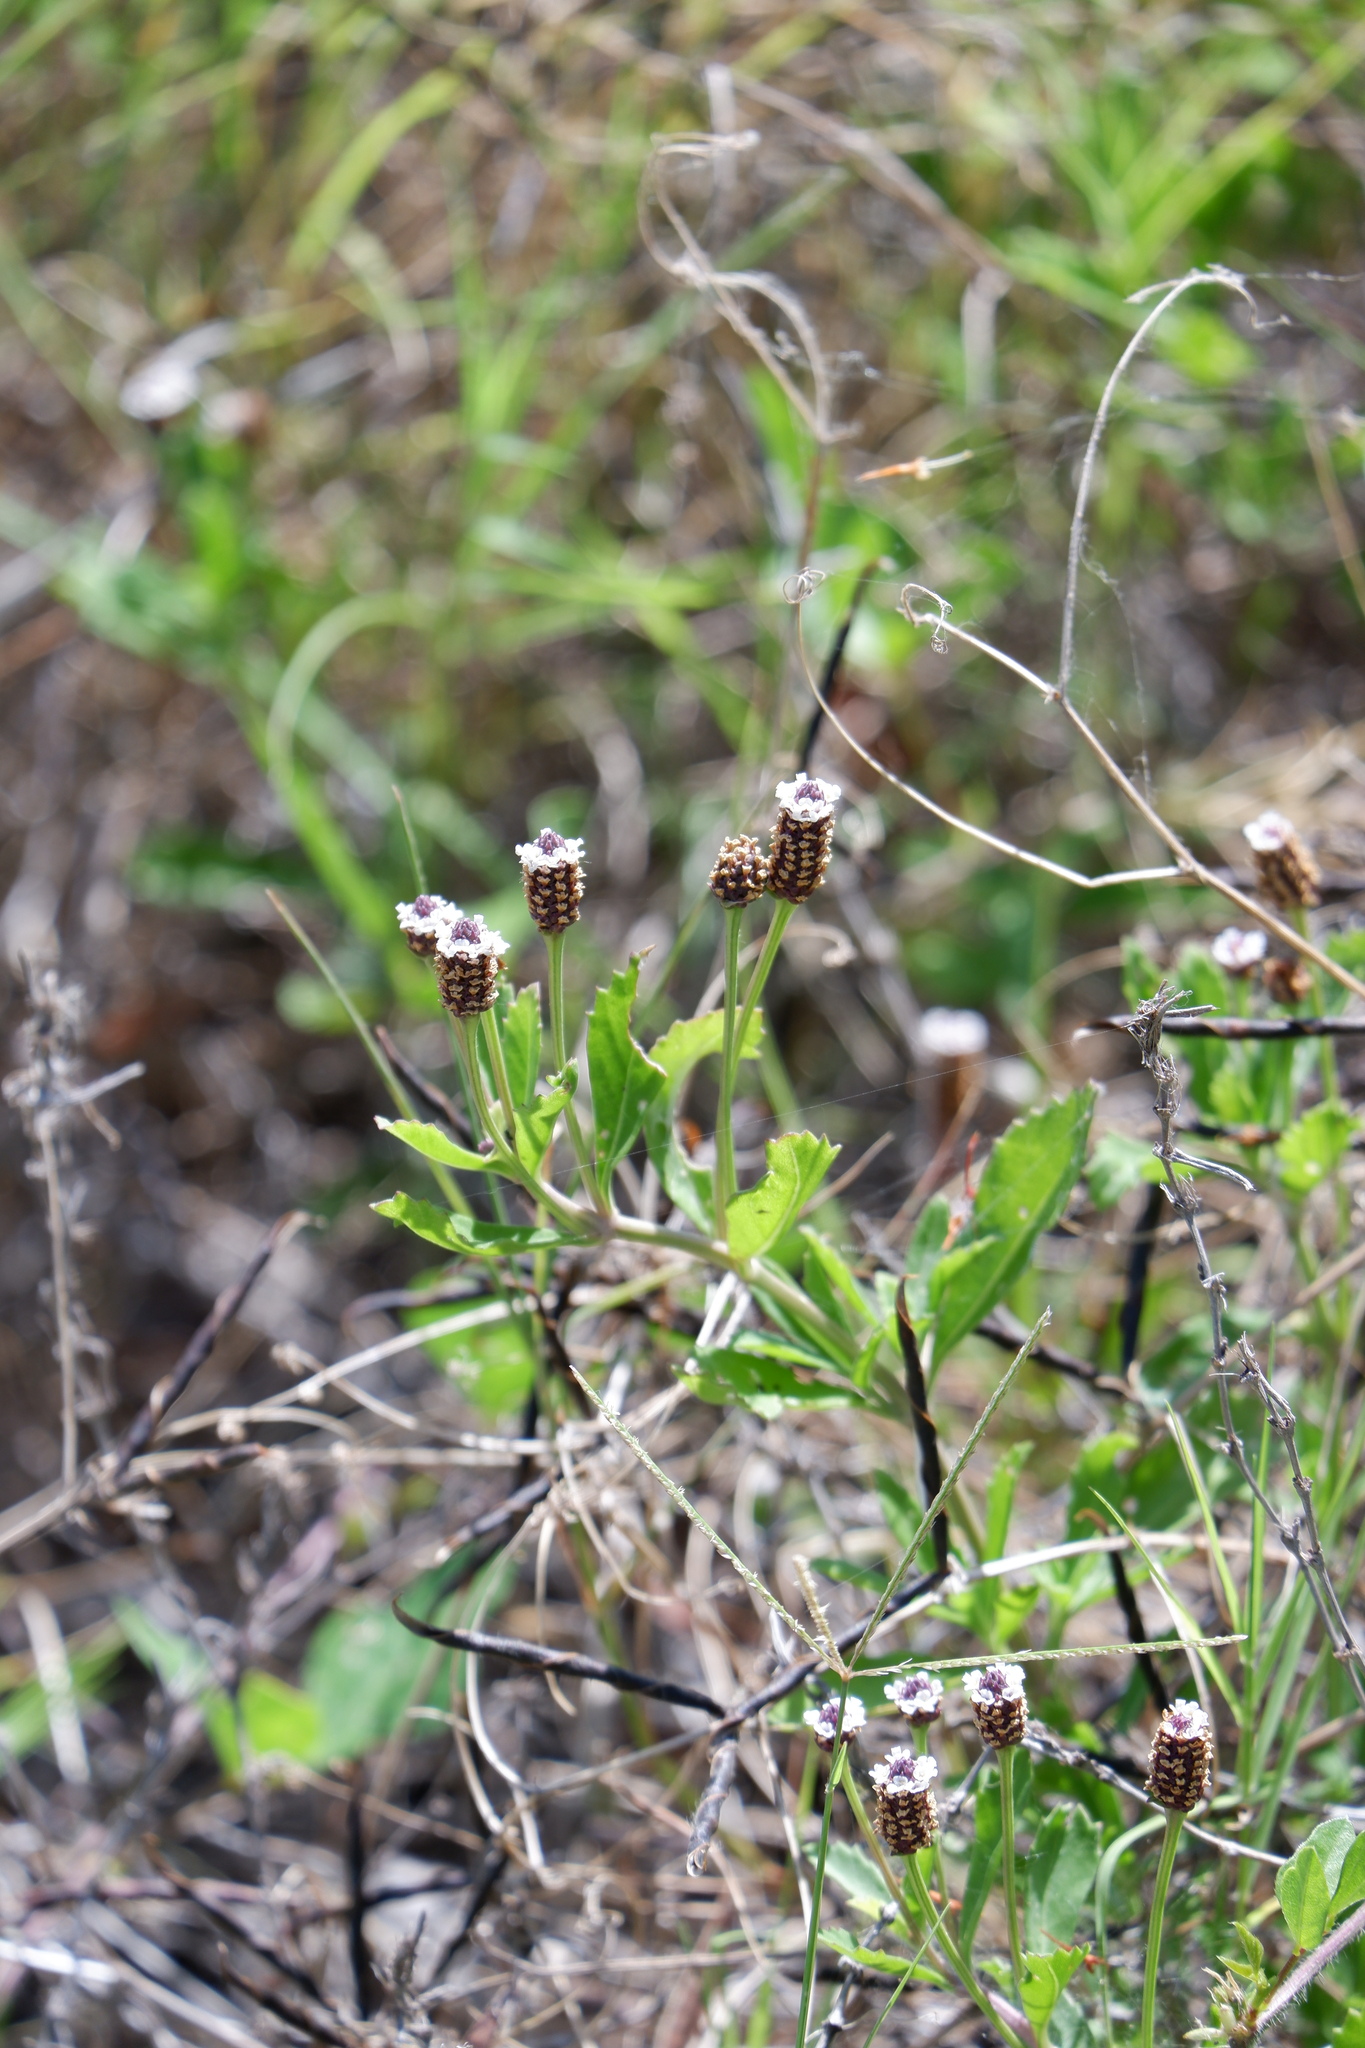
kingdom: Plantae
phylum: Tracheophyta
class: Magnoliopsida
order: Lamiales
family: Verbenaceae
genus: Phyla
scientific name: Phyla nodiflora
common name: Frogfruit
